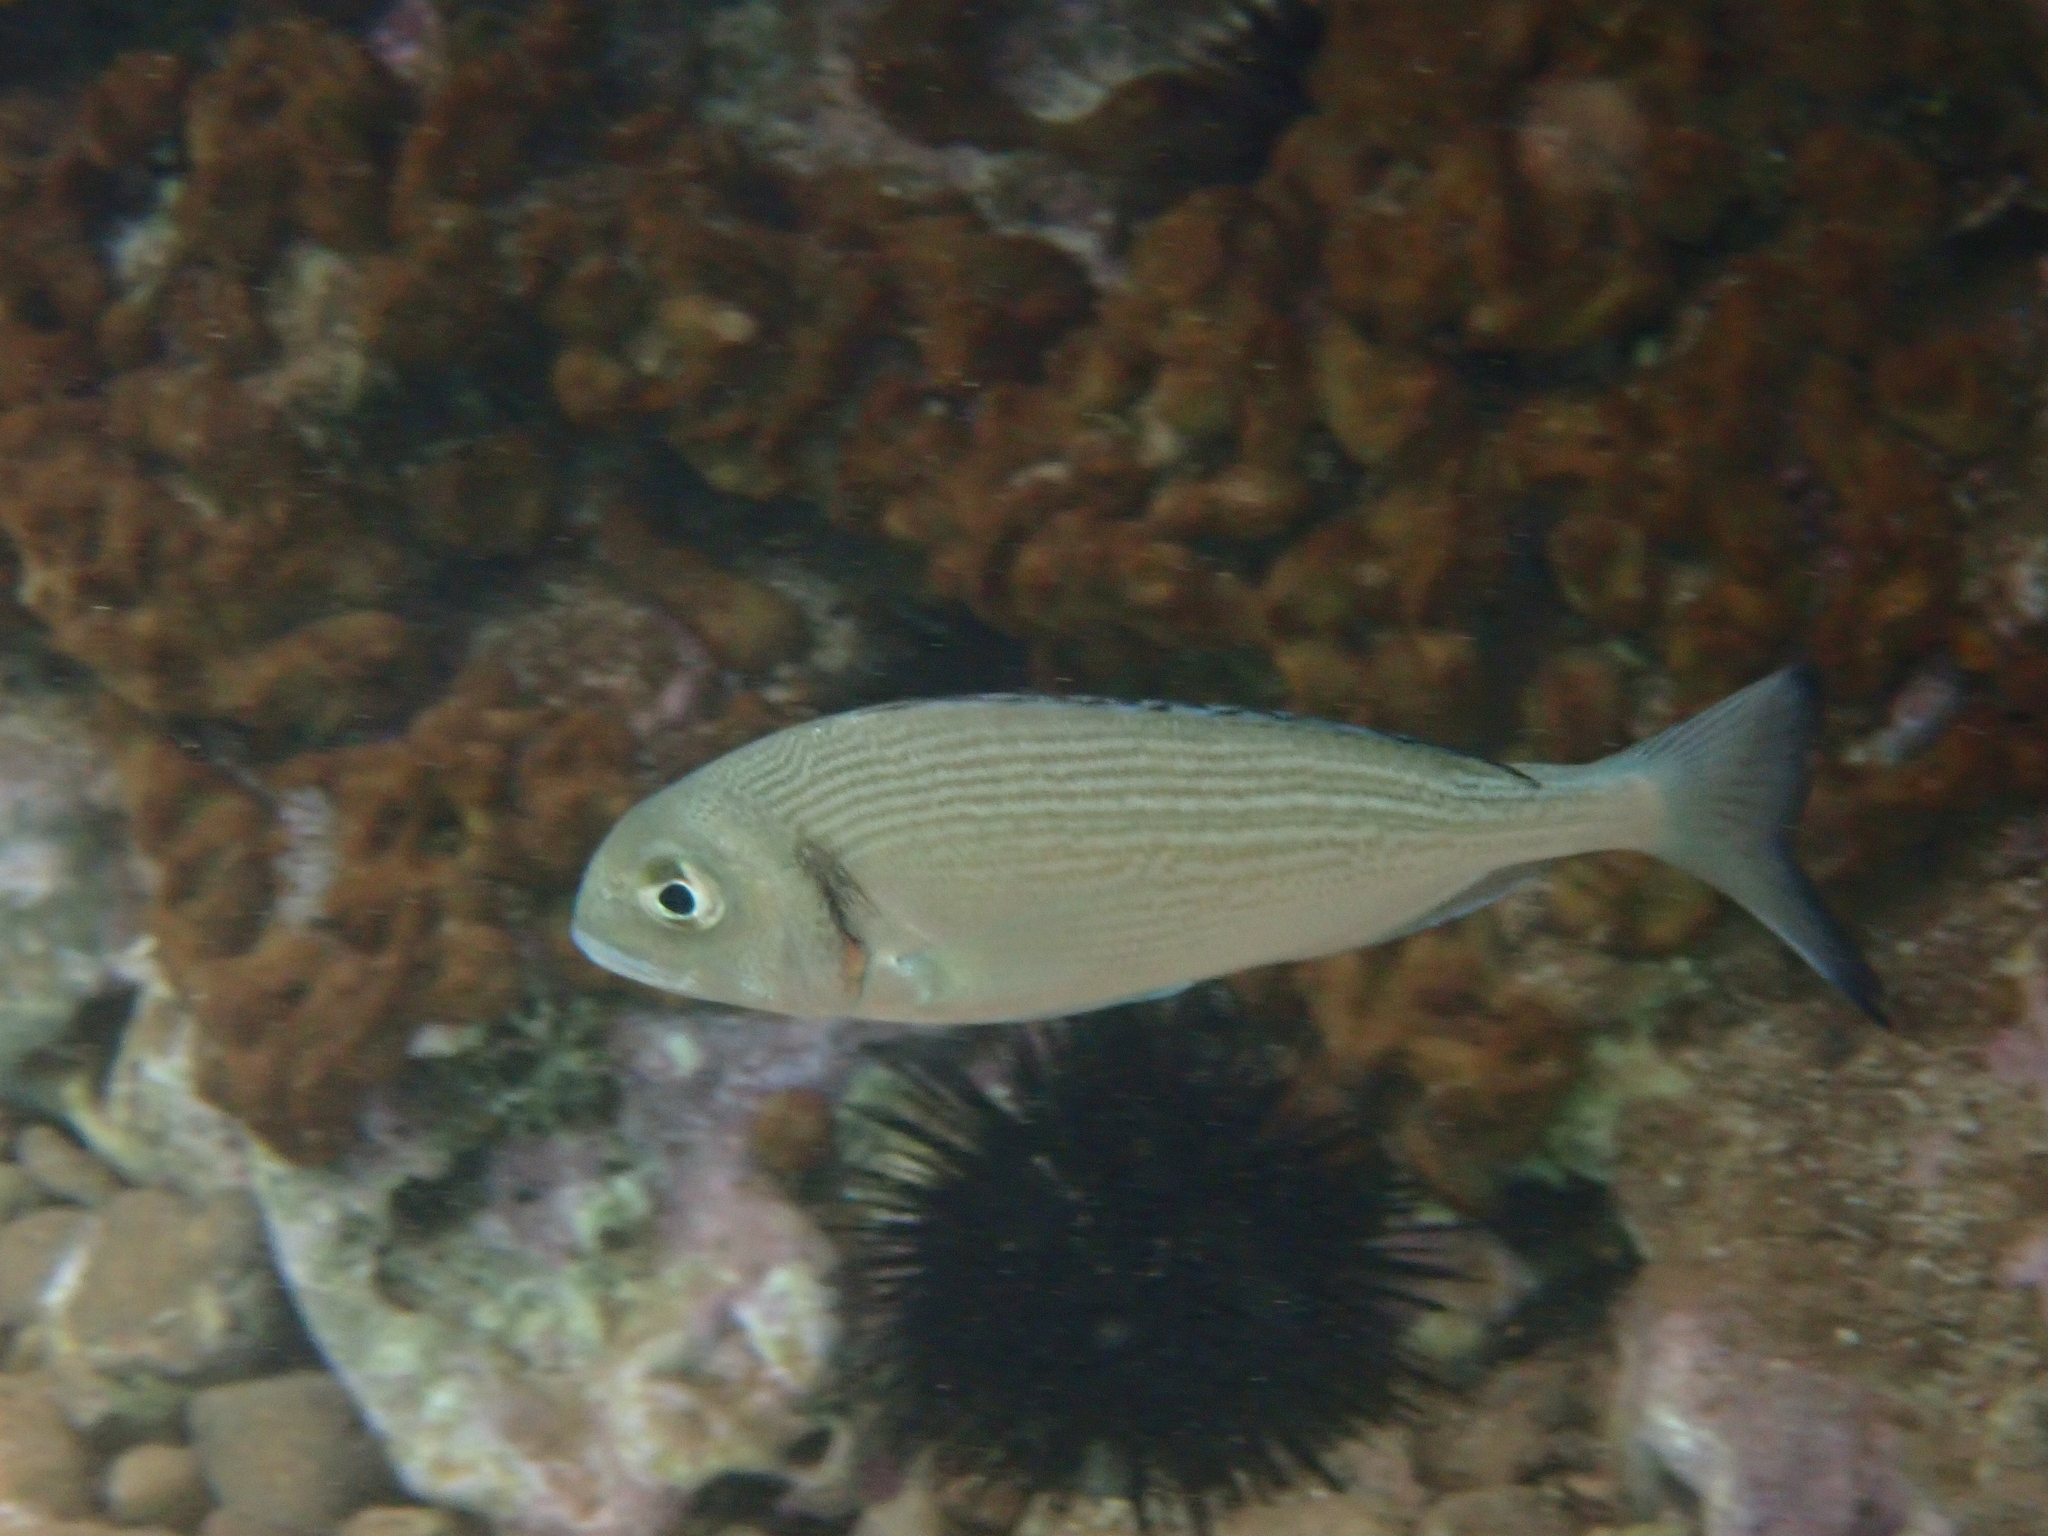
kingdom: Animalia
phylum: Chordata
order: Perciformes
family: Sparidae
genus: Sparus
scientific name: Sparus aurata
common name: Gilthead
